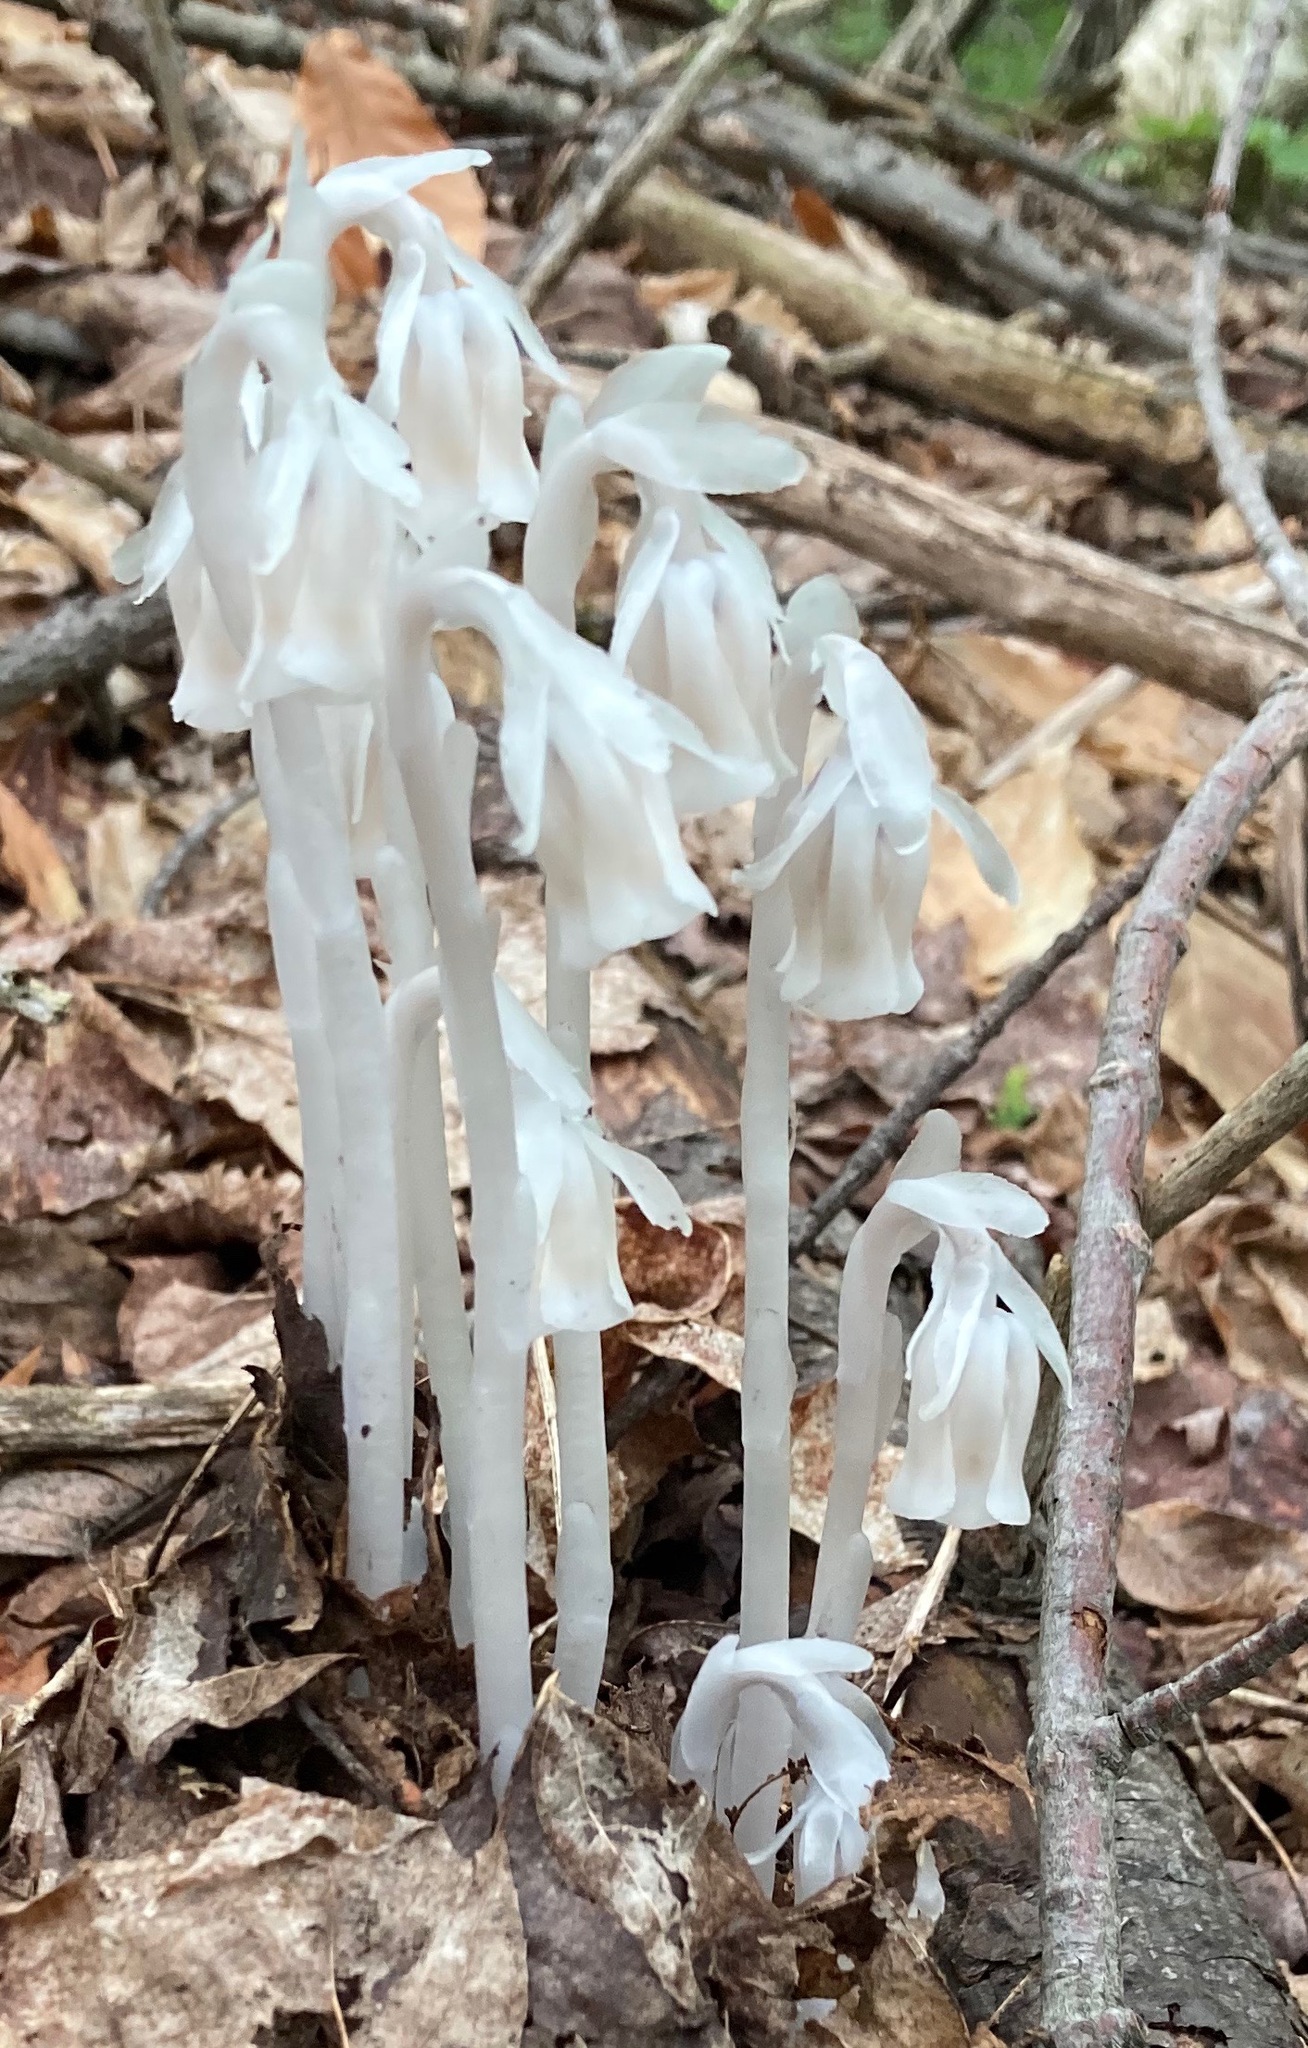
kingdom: Plantae
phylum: Tracheophyta
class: Magnoliopsida
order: Ericales
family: Ericaceae
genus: Monotropa
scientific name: Monotropa uniflora
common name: Convulsion root
